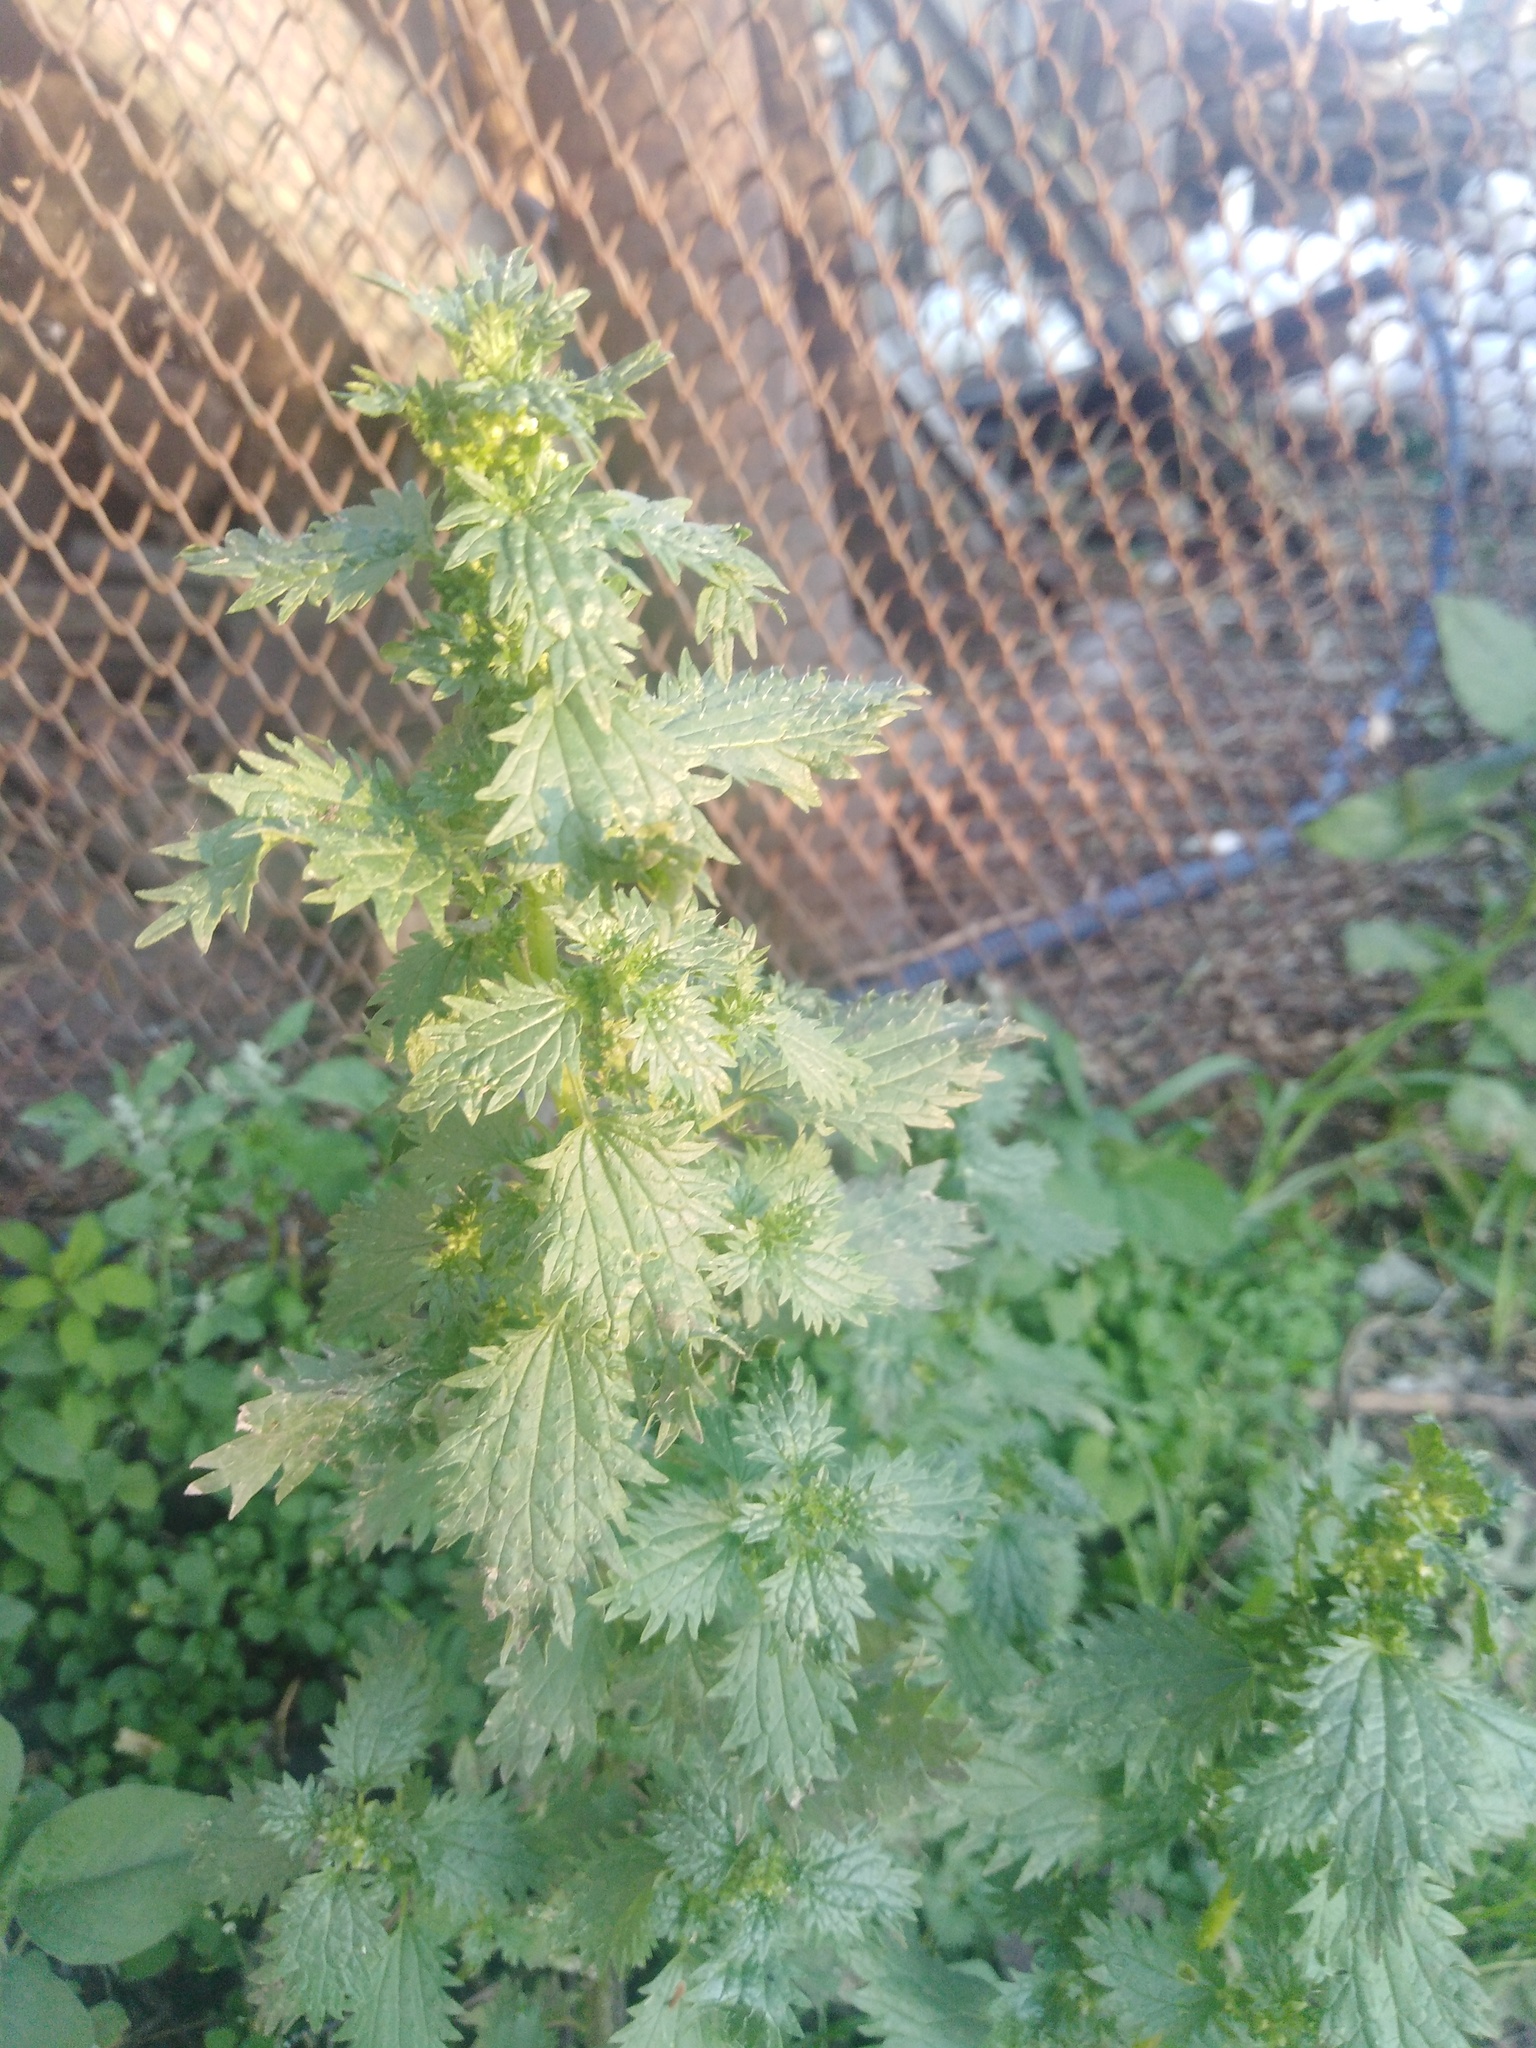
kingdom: Plantae
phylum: Tracheophyta
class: Magnoliopsida
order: Rosales
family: Urticaceae
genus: Urtica
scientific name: Urtica urens
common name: Dwarf nettle
